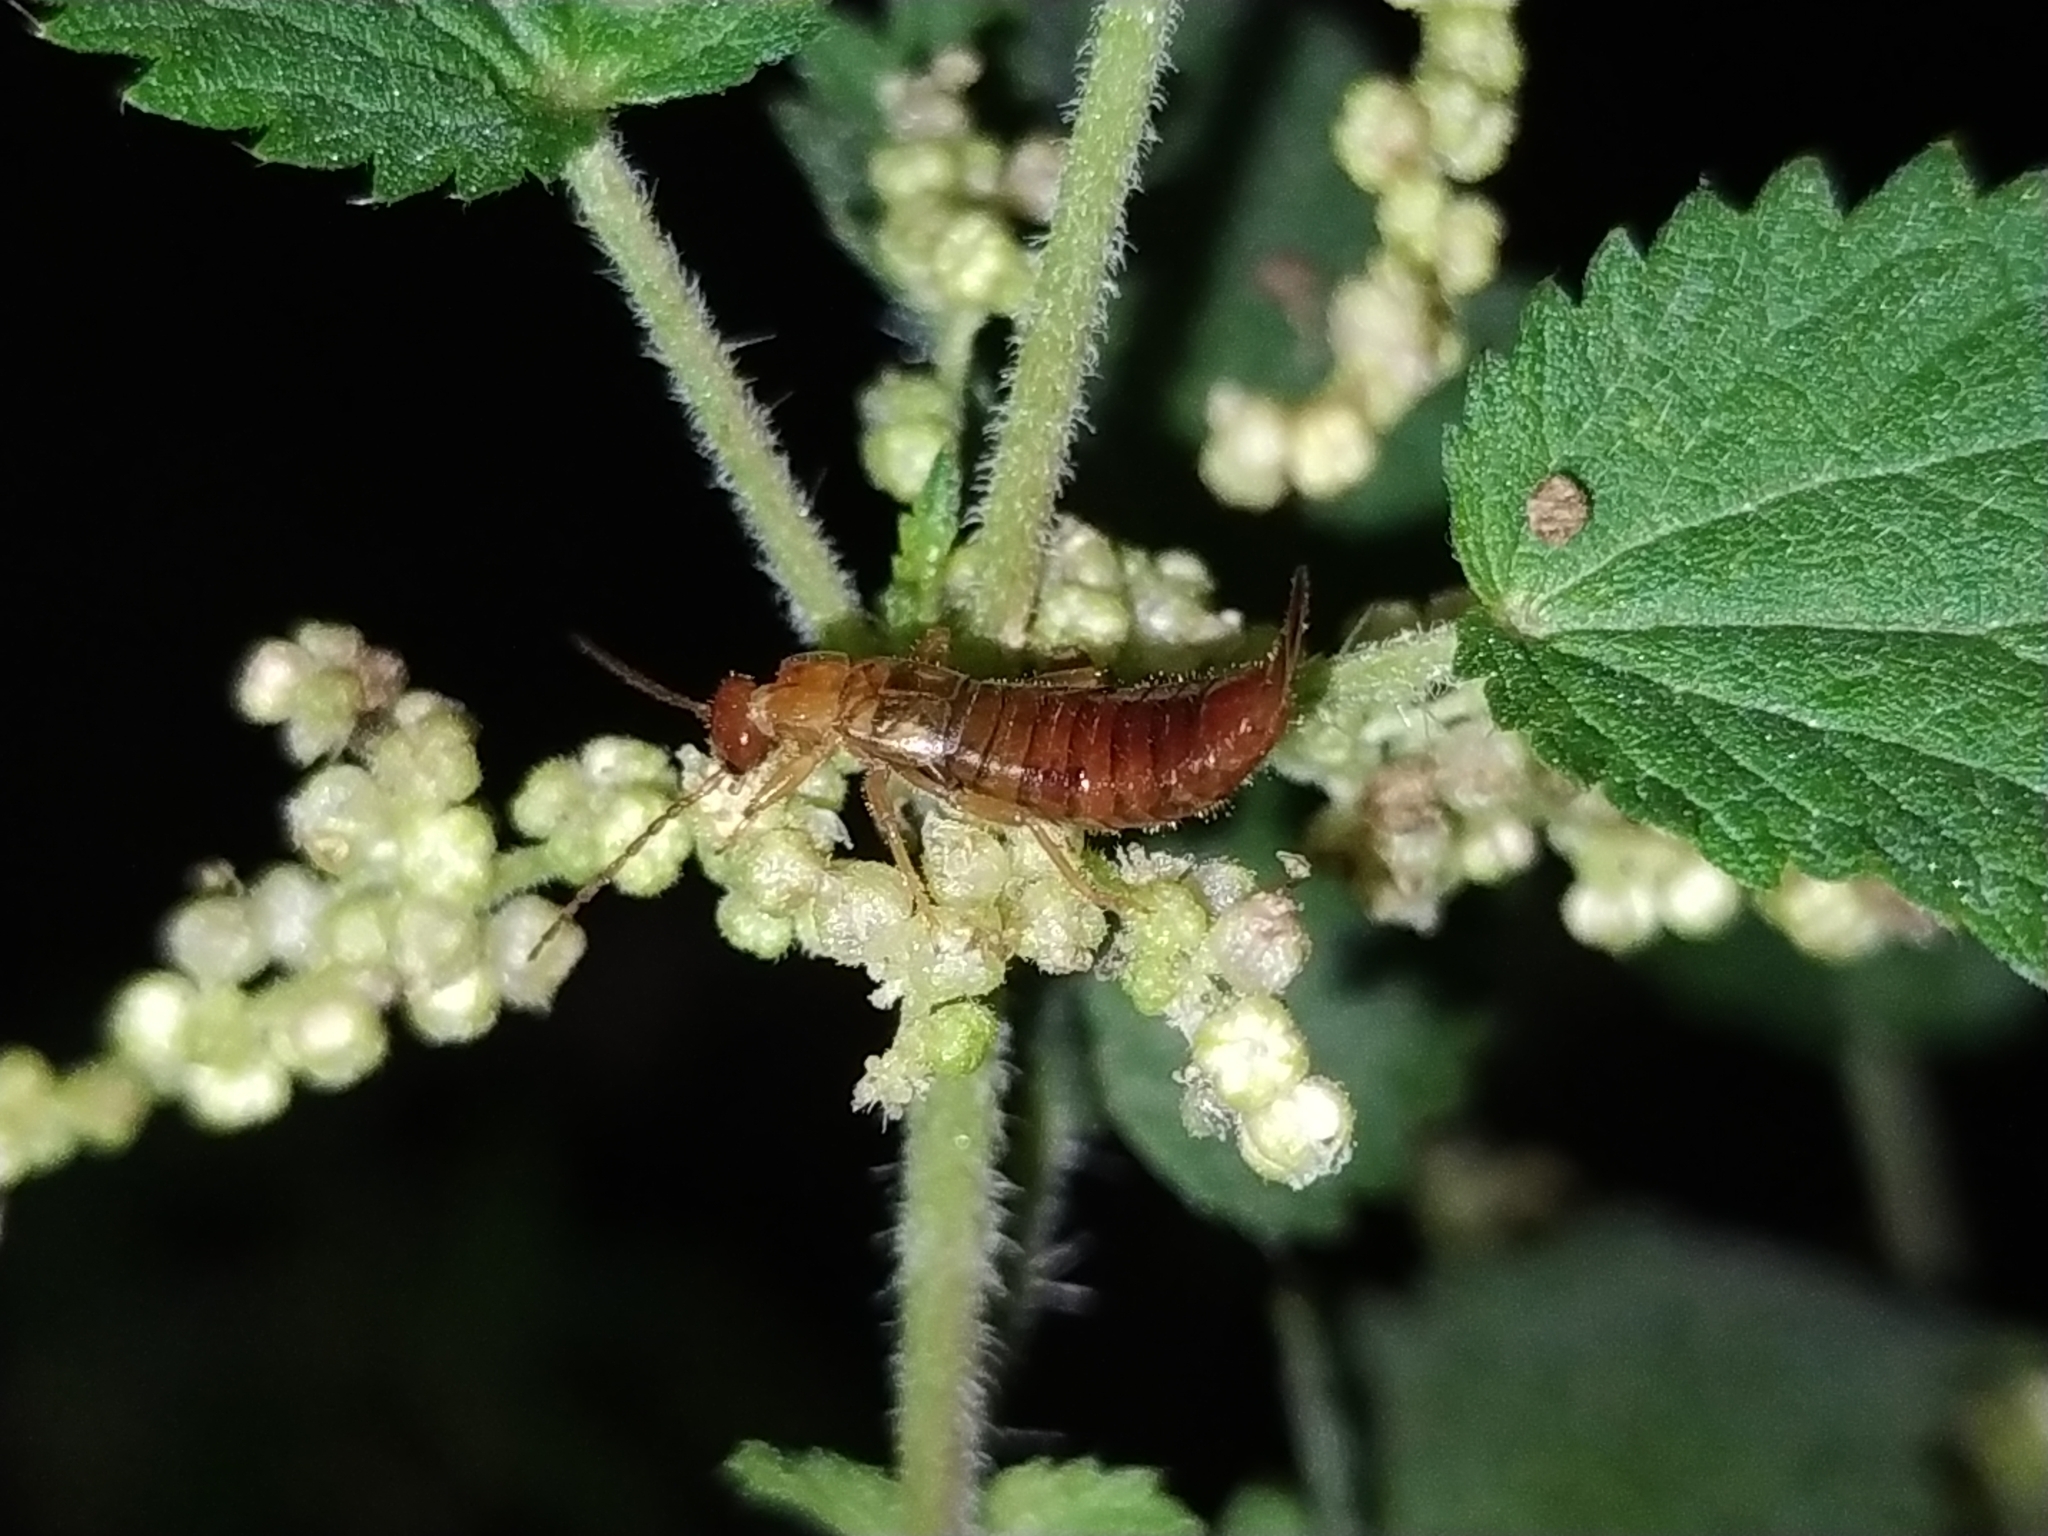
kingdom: Animalia
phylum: Arthropoda
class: Insecta
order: Dermaptera
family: Forficulidae
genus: Apterygida
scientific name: Apterygida albipennis
